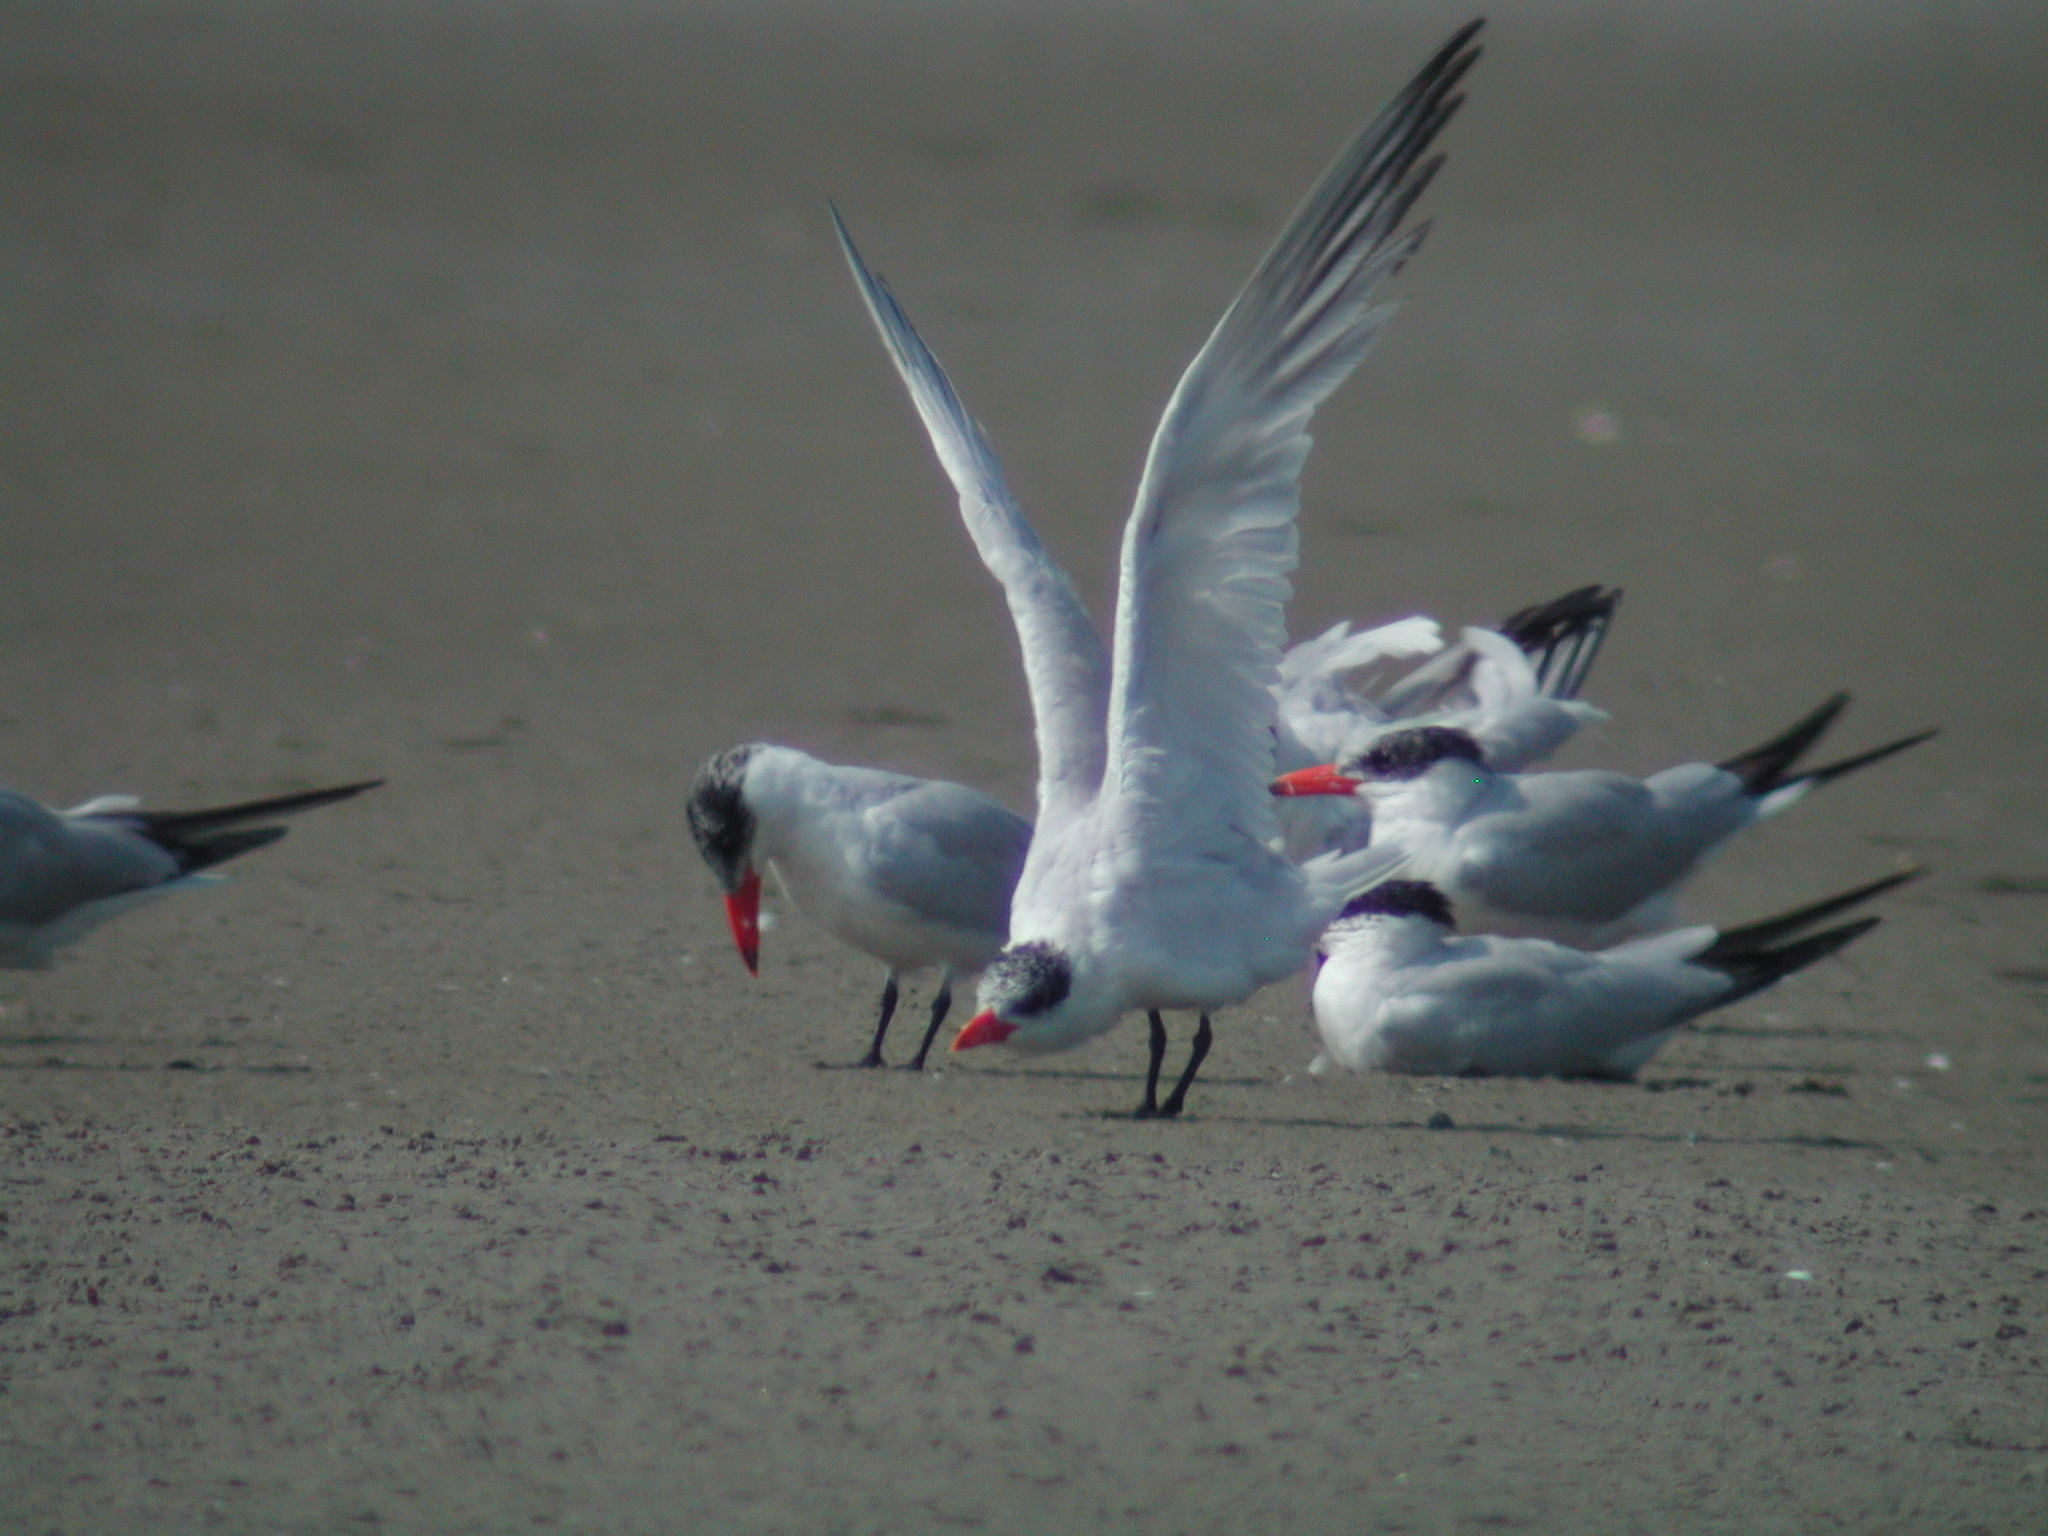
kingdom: Animalia
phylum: Chordata
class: Aves
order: Charadriiformes
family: Laridae
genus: Hydroprogne
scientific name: Hydroprogne caspia
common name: Caspian tern
